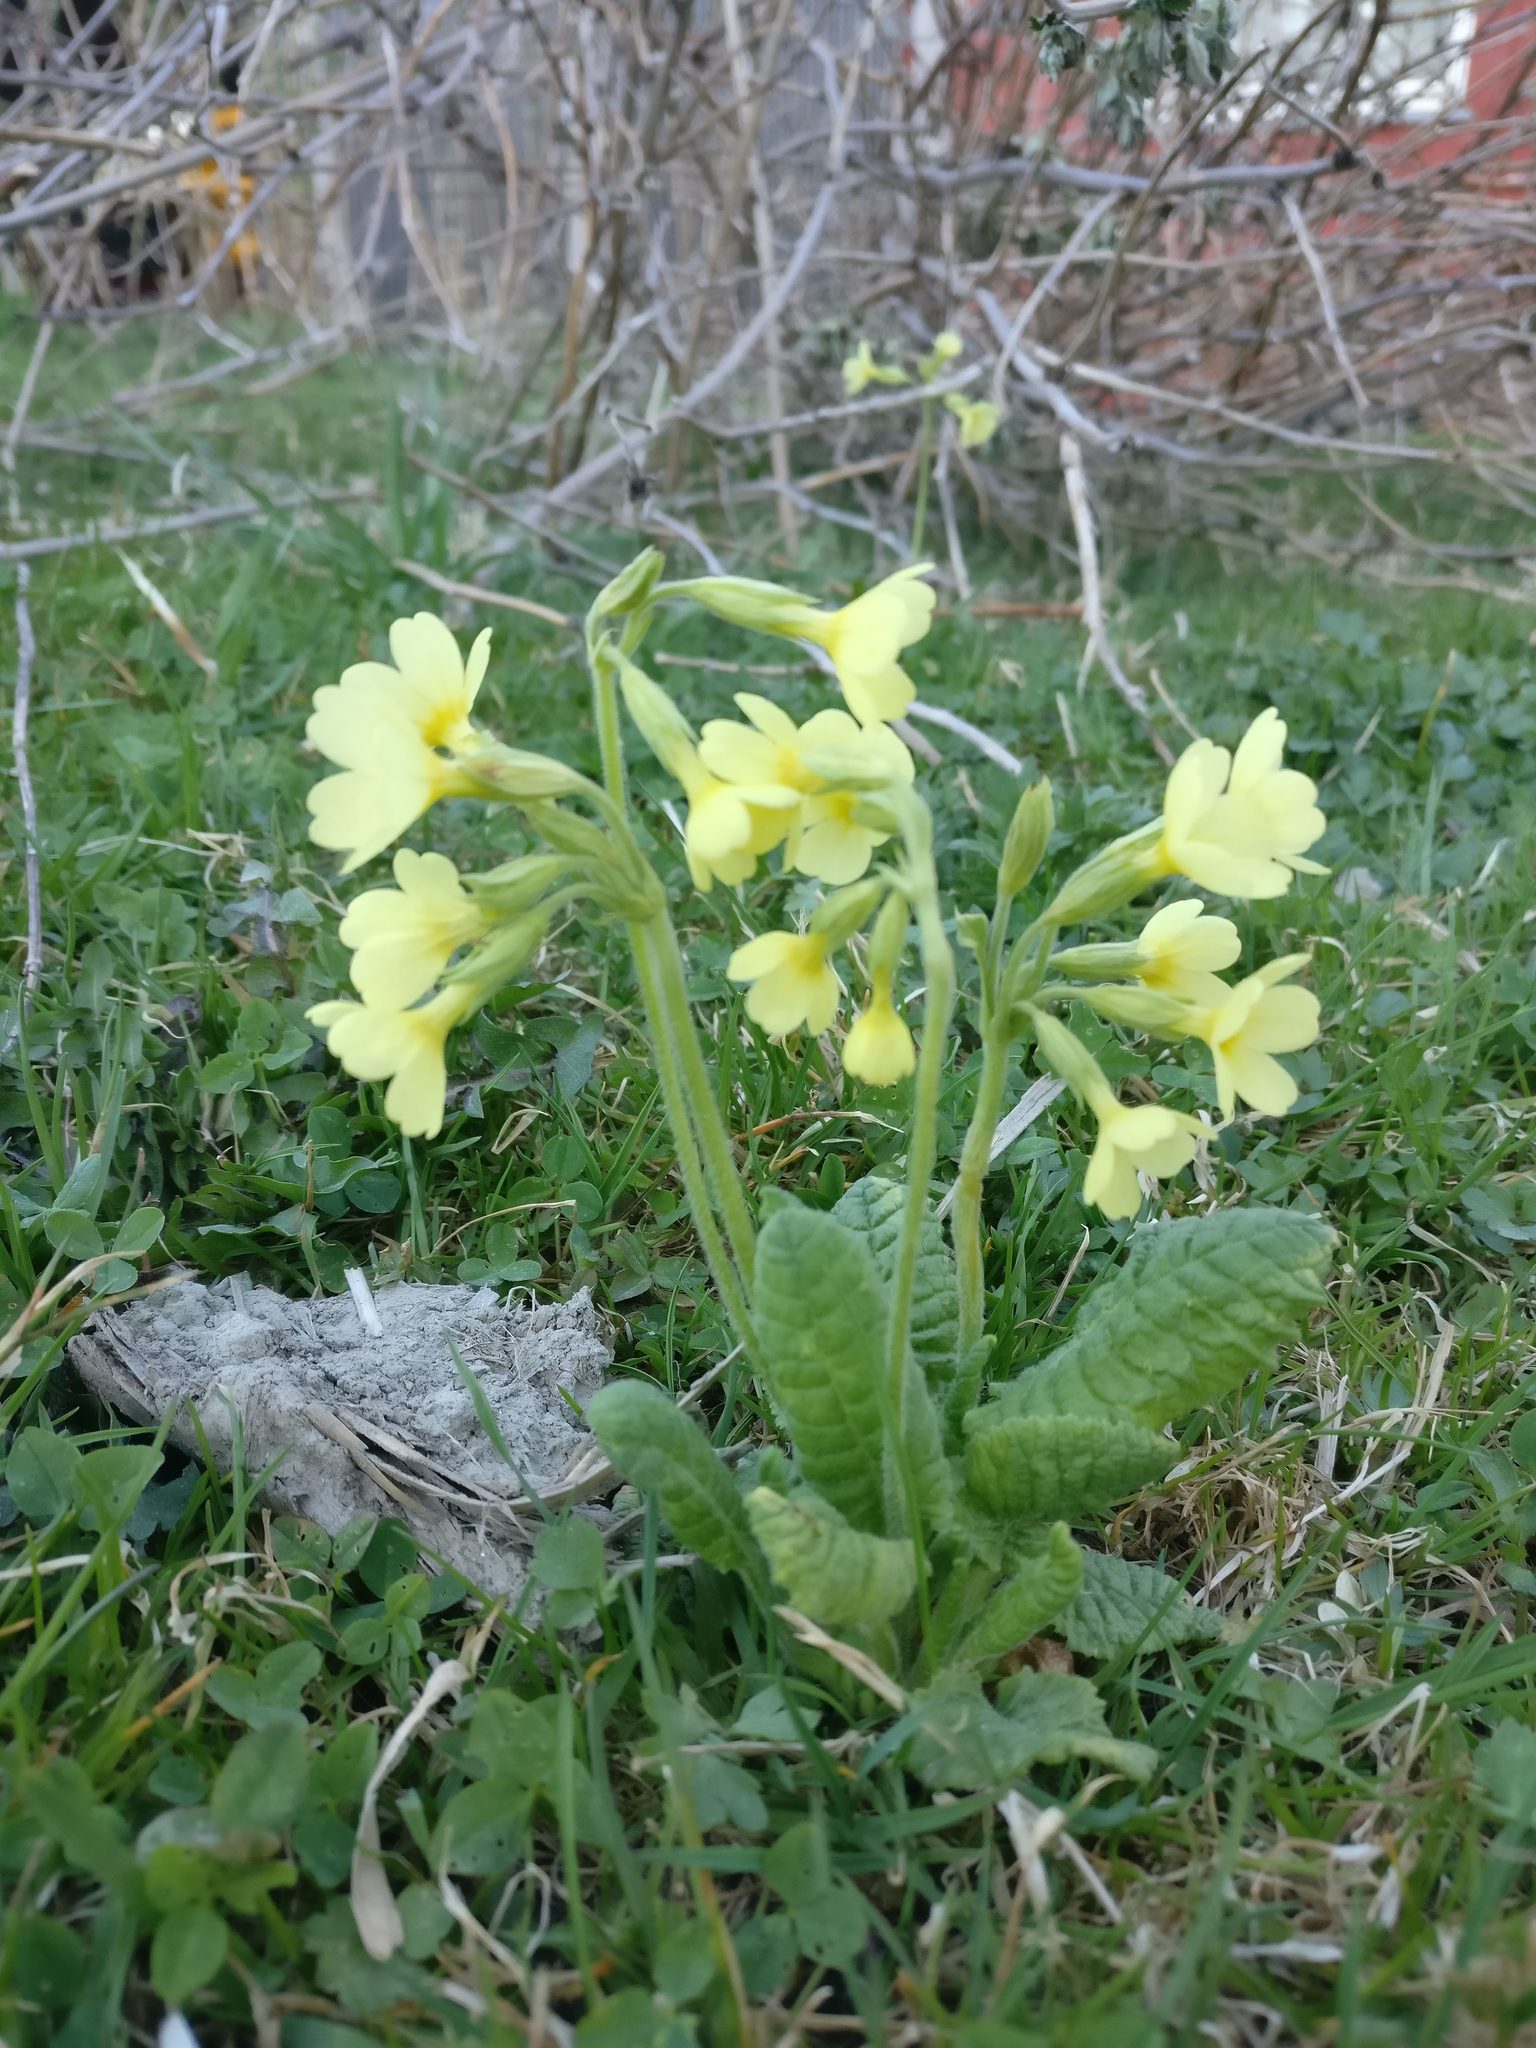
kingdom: Plantae
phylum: Tracheophyta
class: Magnoliopsida
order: Ericales
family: Primulaceae
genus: Primula
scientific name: Primula elatior
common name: Oxlip
